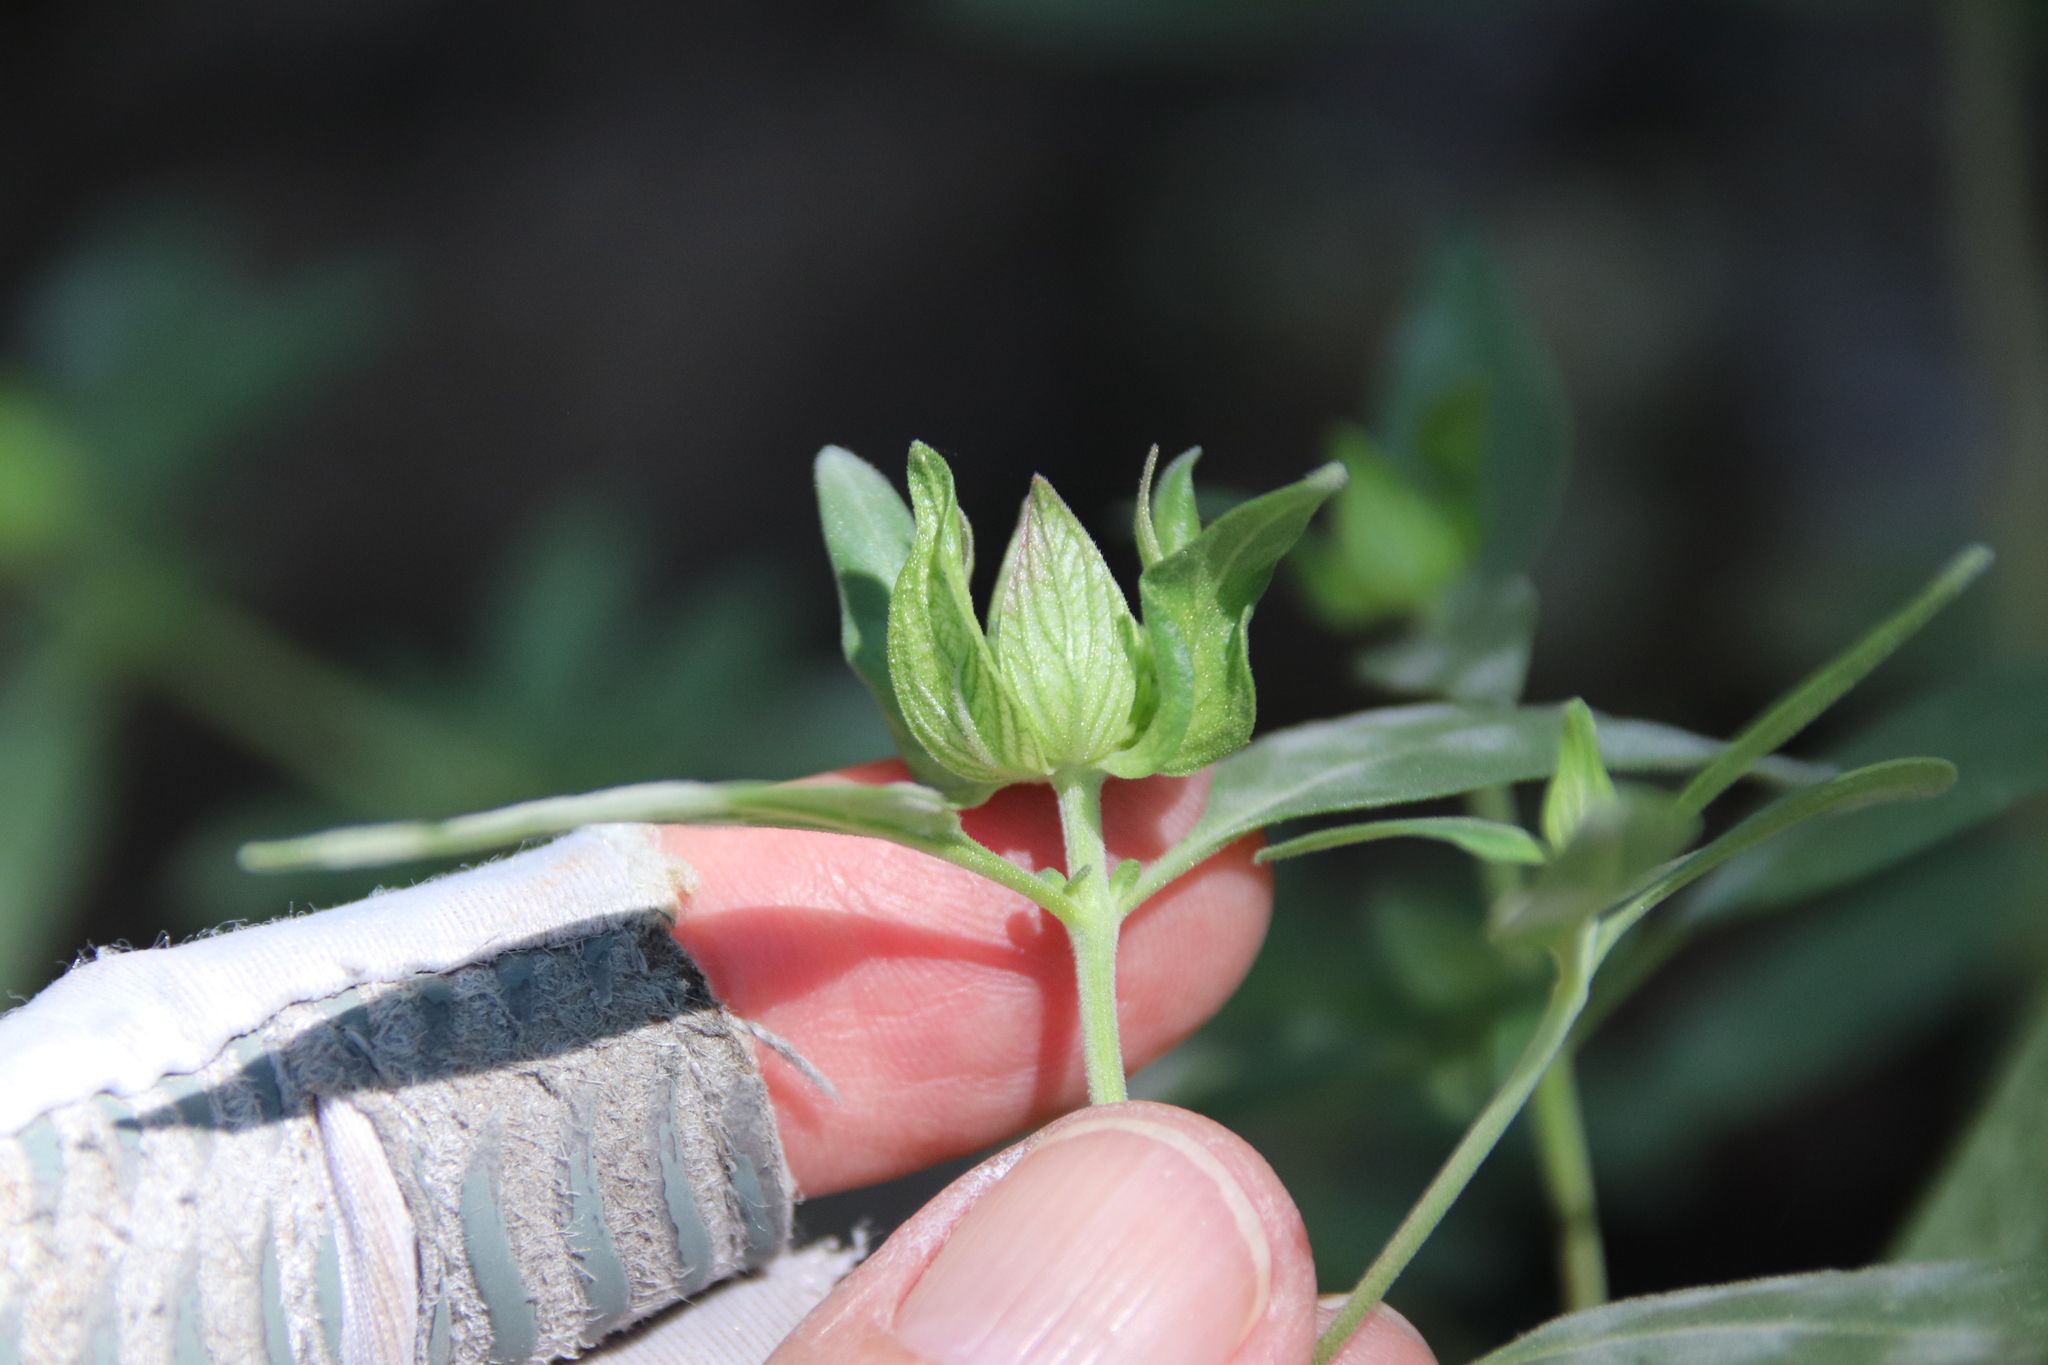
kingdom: Plantae
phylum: Tracheophyta
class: Magnoliopsida
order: Lamiales
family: Lamiaceae
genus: Monardella
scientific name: Monardella breweri
